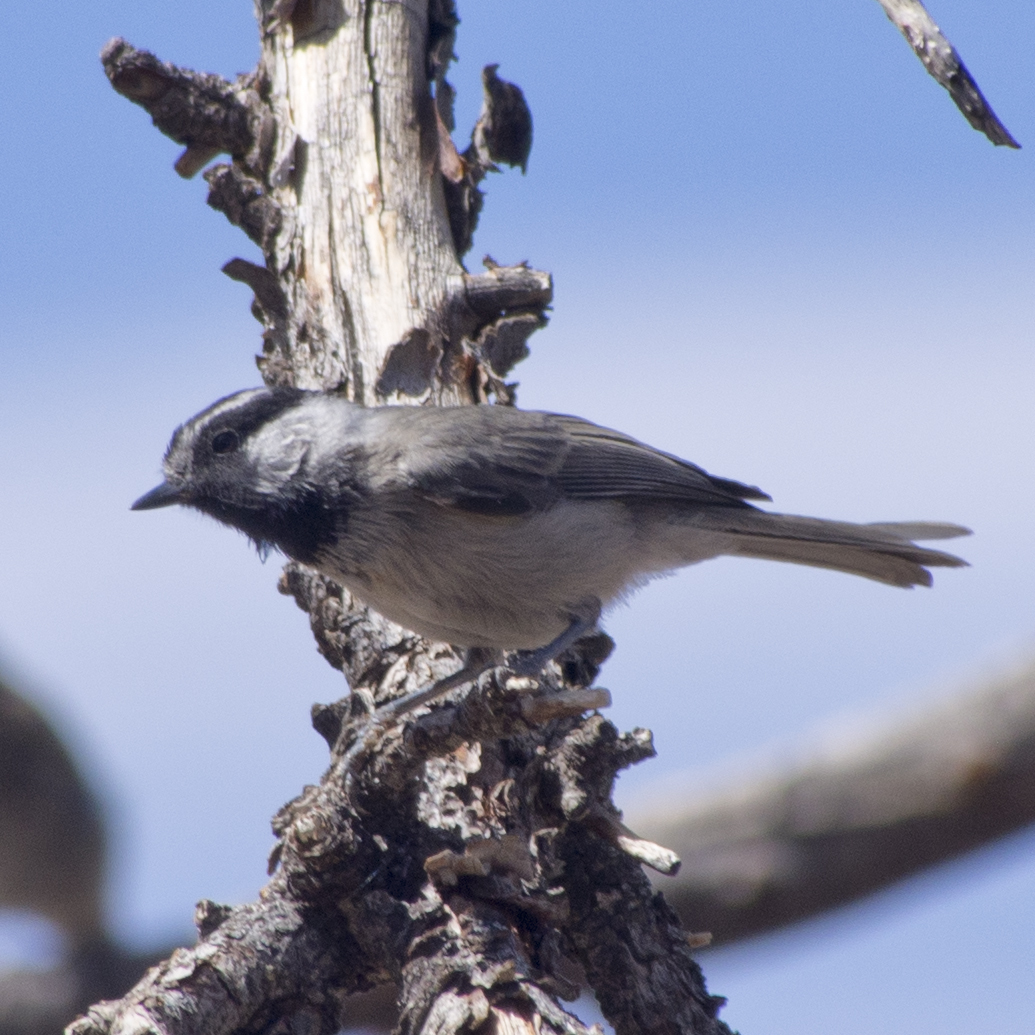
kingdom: Animalia
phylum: Chordata
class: Aves
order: Passeriformes
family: Paridae
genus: Poecile
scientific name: Poecile gambeli
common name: Mountain chickadee
